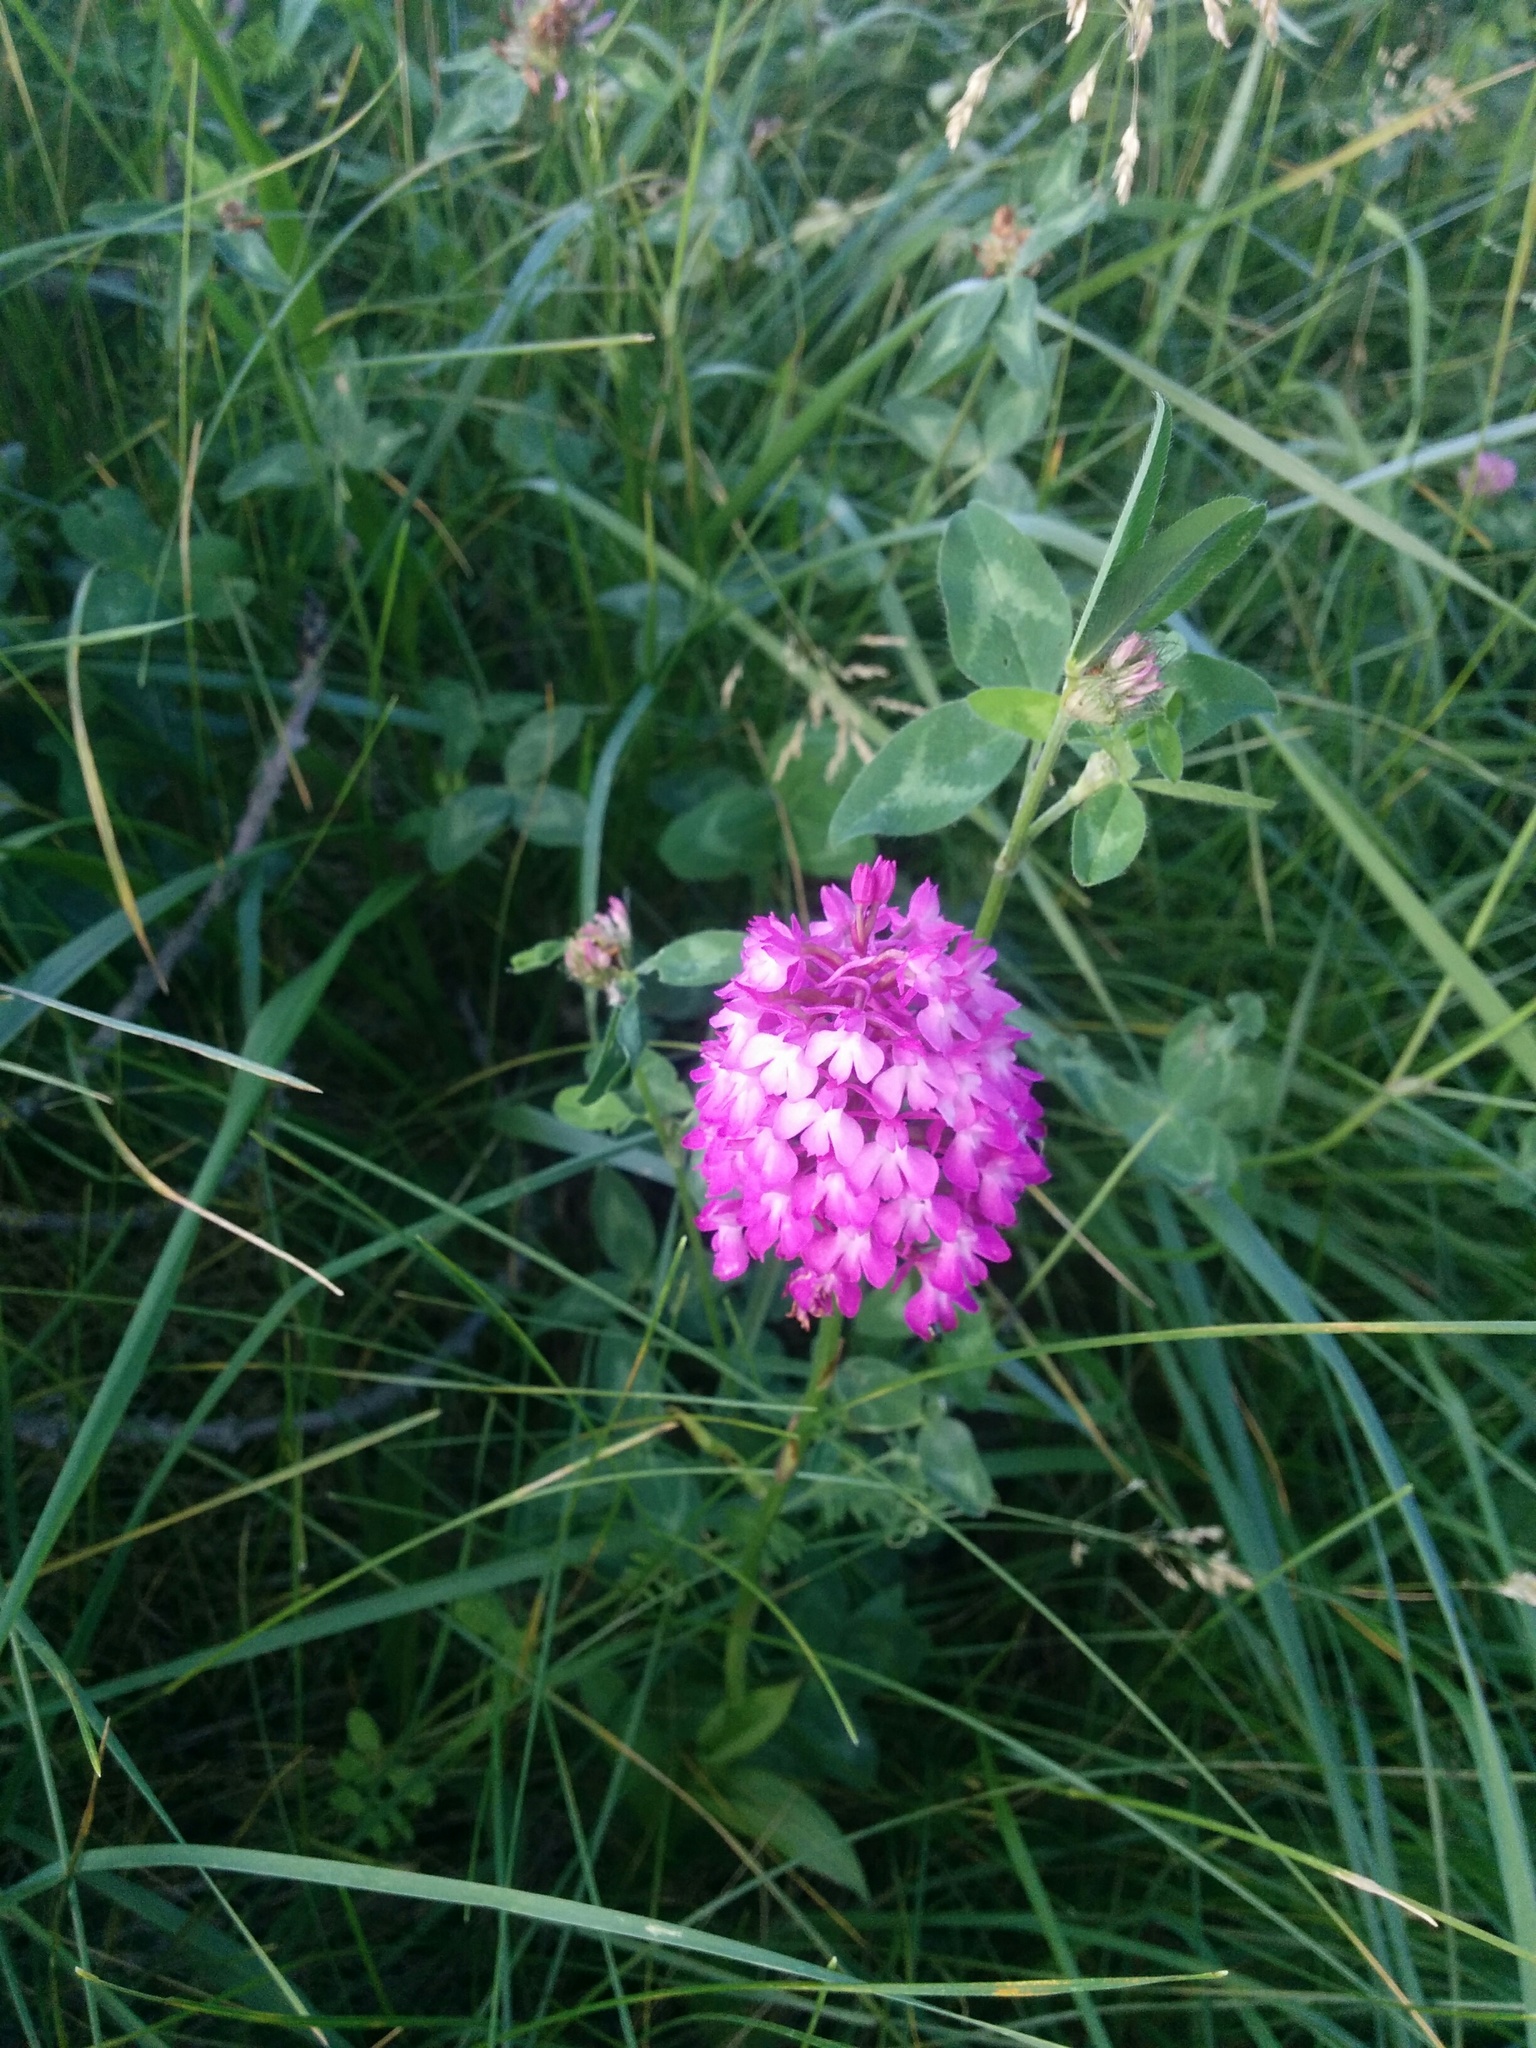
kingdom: Plantae
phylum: Tracheophyta
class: Liliopsida
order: Asparagales
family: Orchidaceae
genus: Anacamptis
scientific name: Anacamptis pyramidalis
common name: Pyramidal orchid
